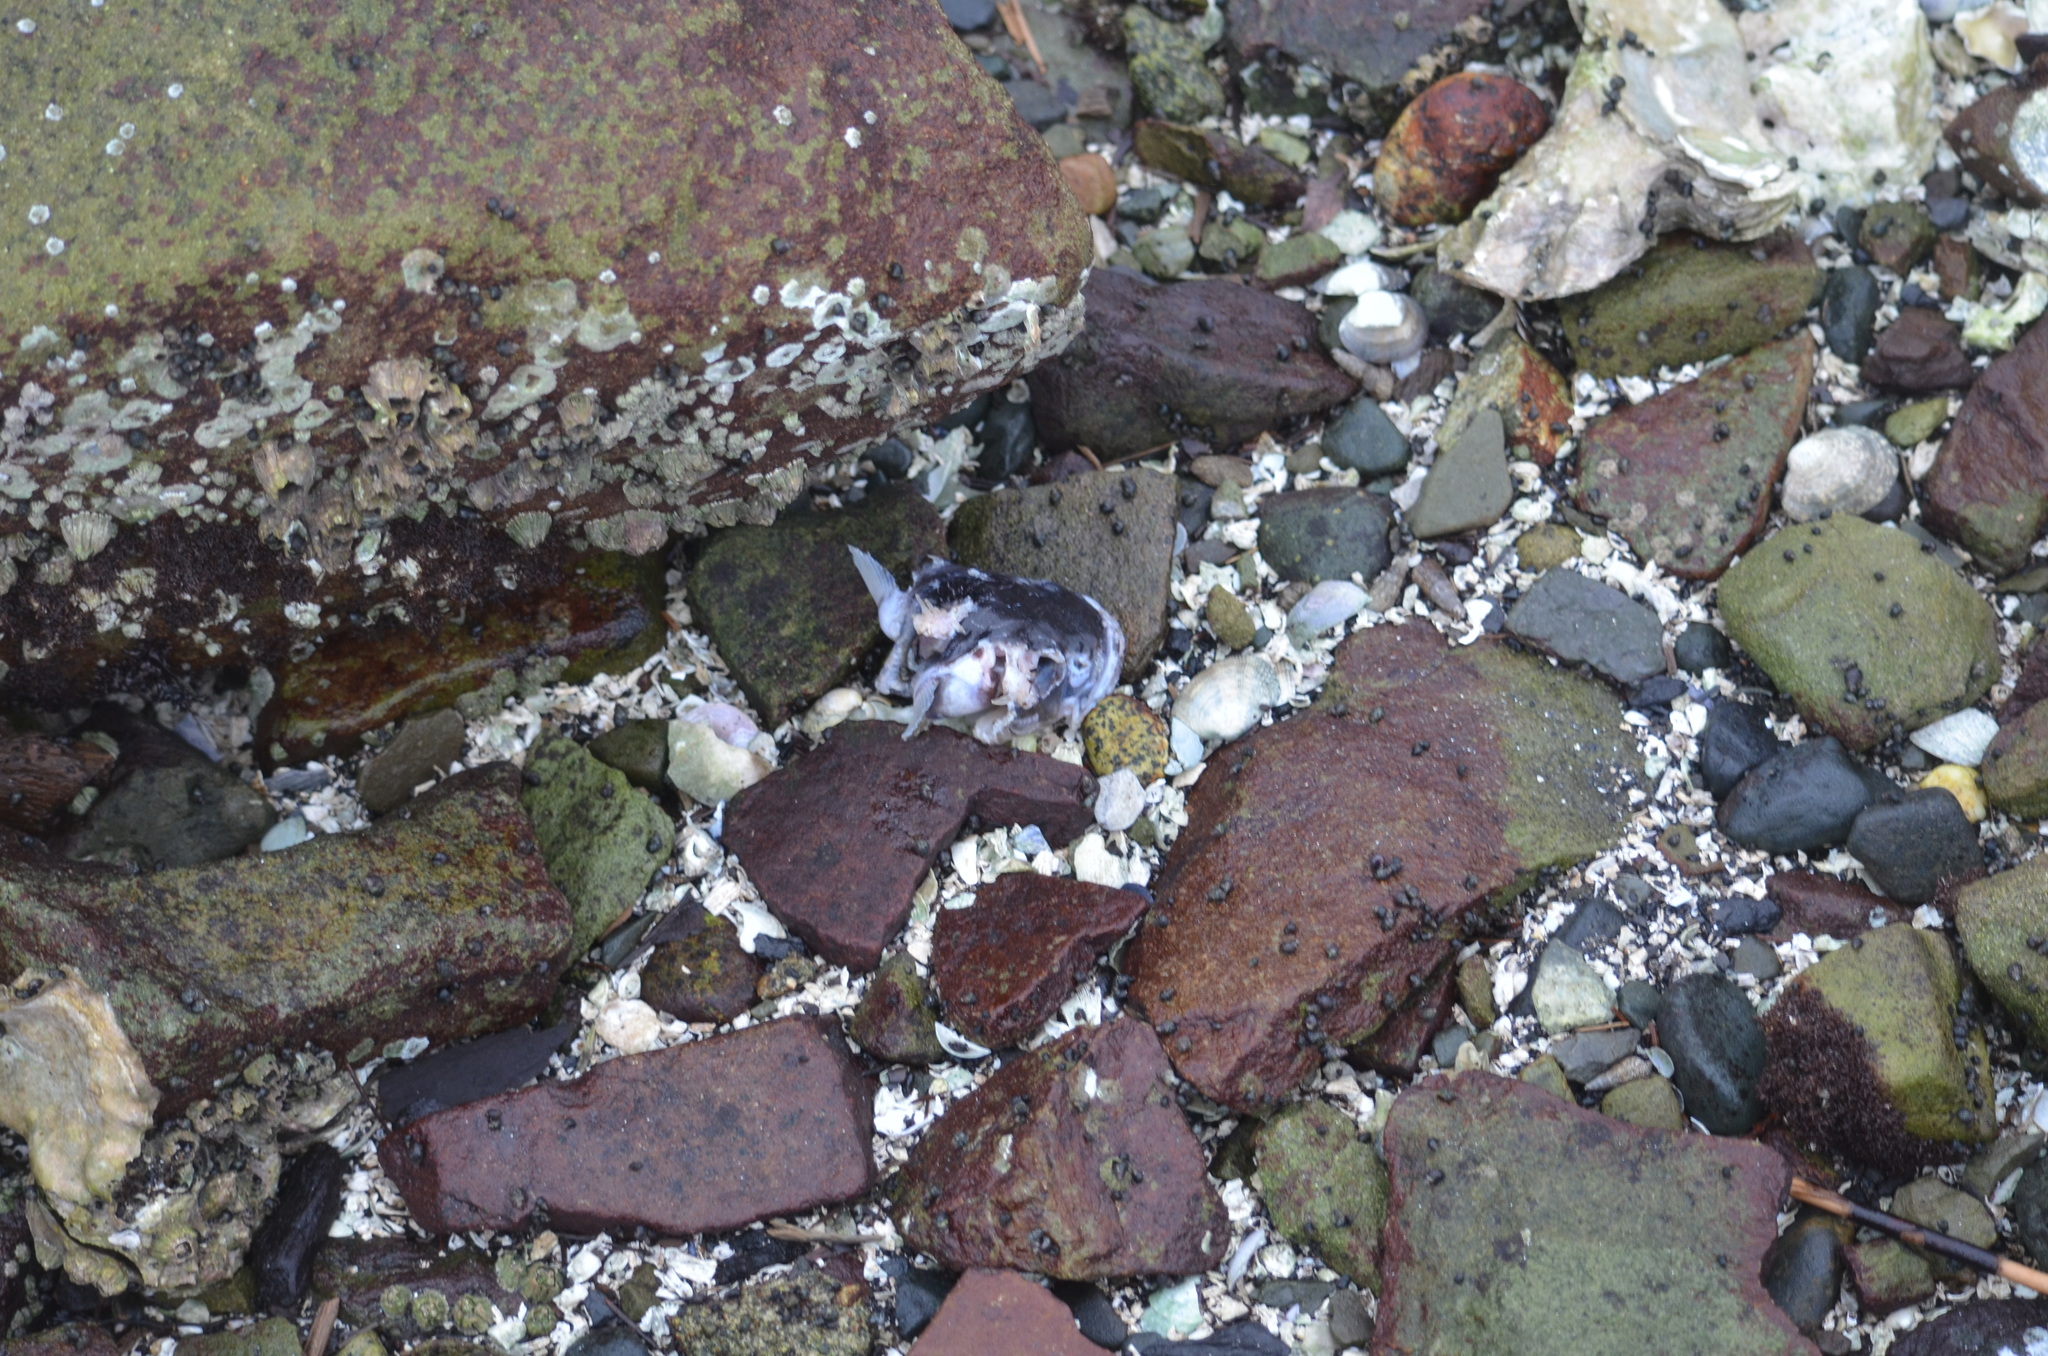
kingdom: Animalia
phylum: Chordata
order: Batrachoidiformes
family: Batrachoididae
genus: Porichthys
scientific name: Porichthys notatus
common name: Plainfin midshipman
